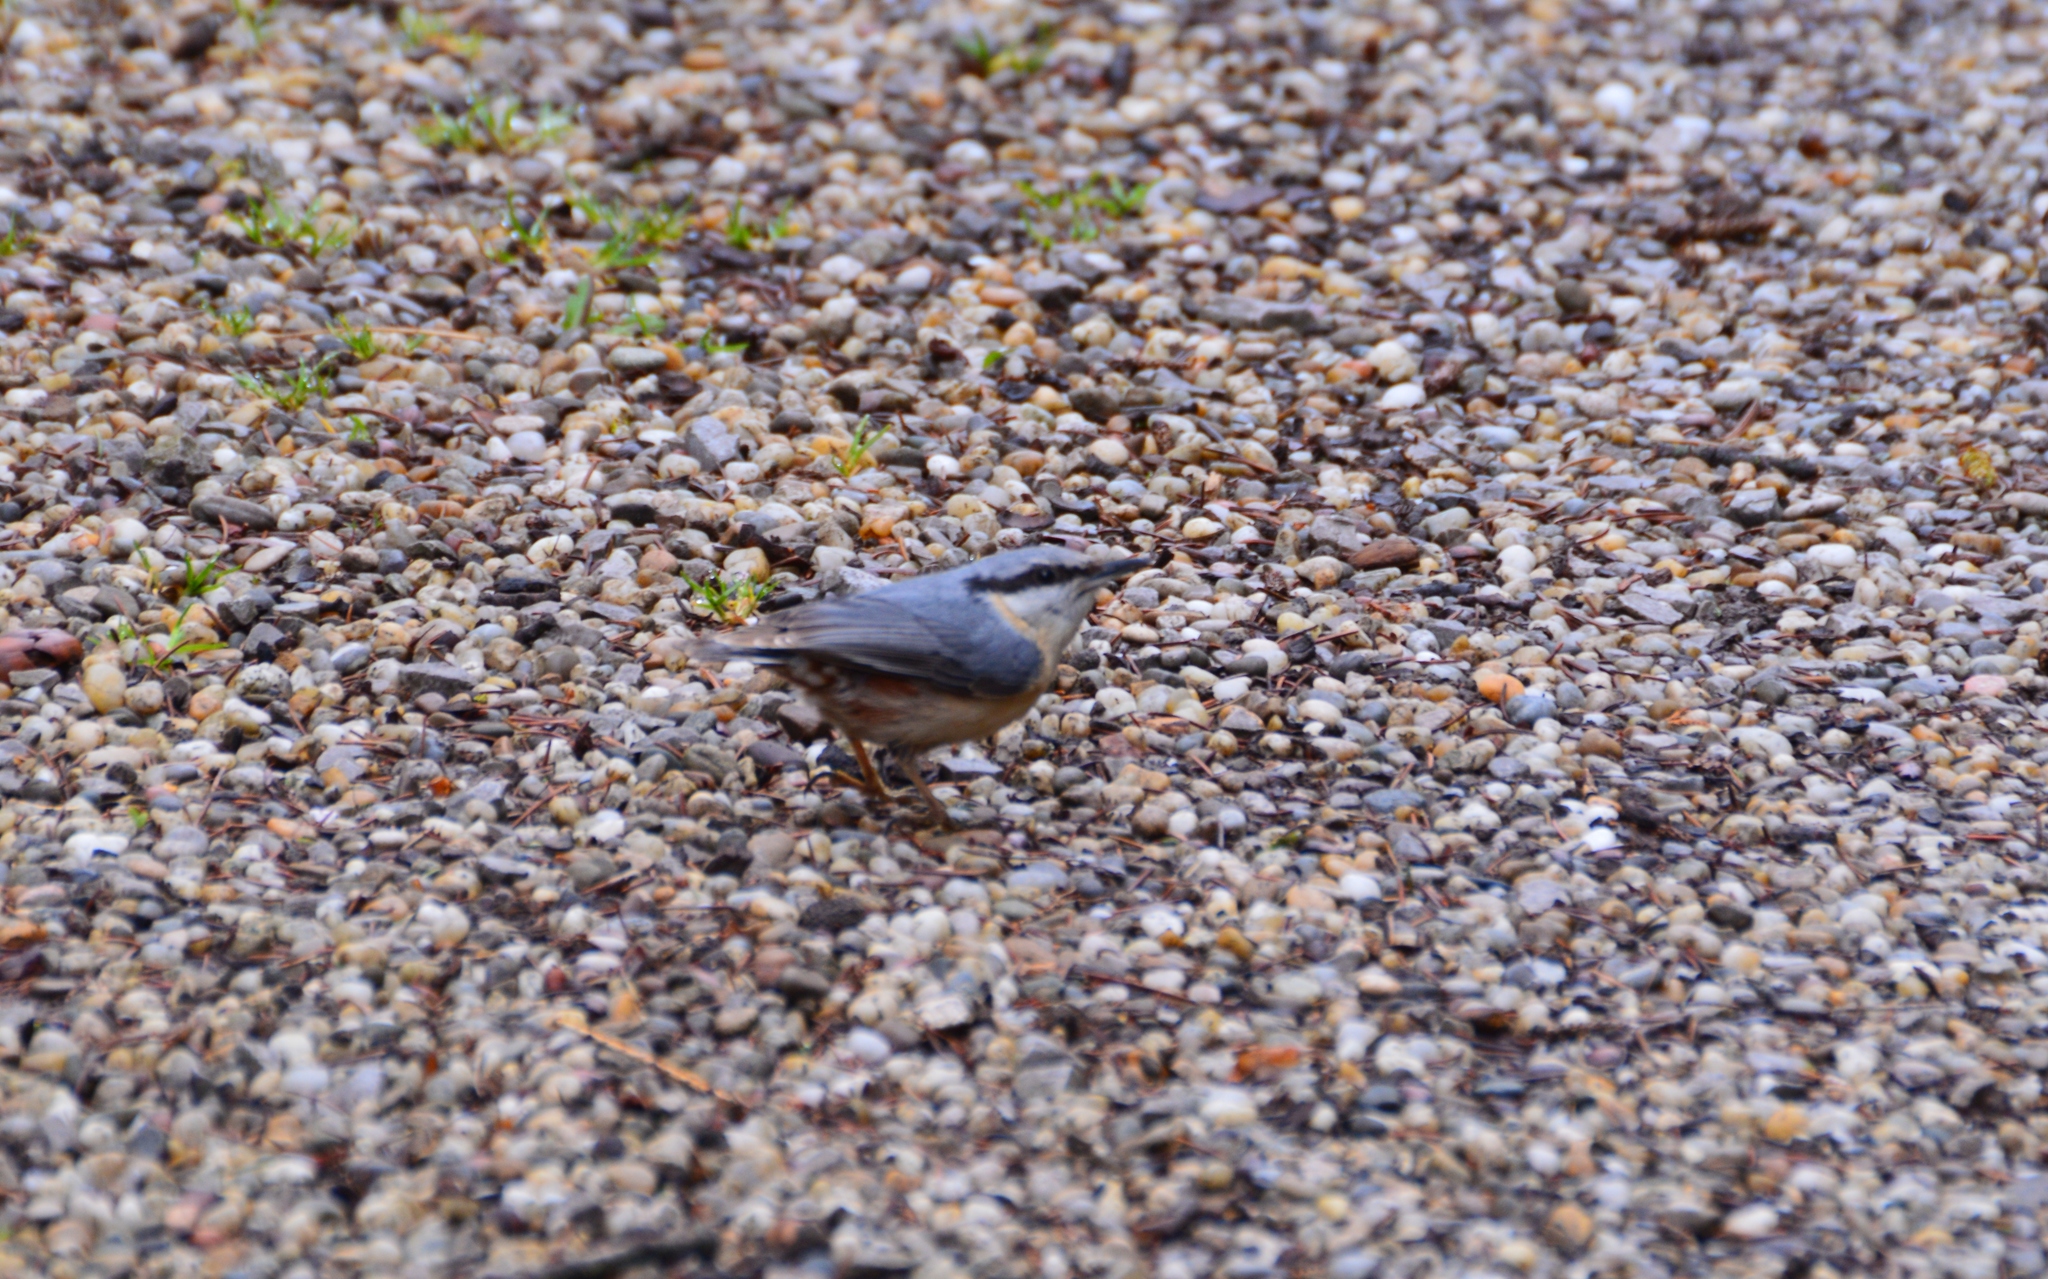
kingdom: Animalia
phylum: Chordata
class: Aves
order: Passeriformes
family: Sittidae
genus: Sitta
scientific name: Sitta europaea
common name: Eurasian nuthatch
